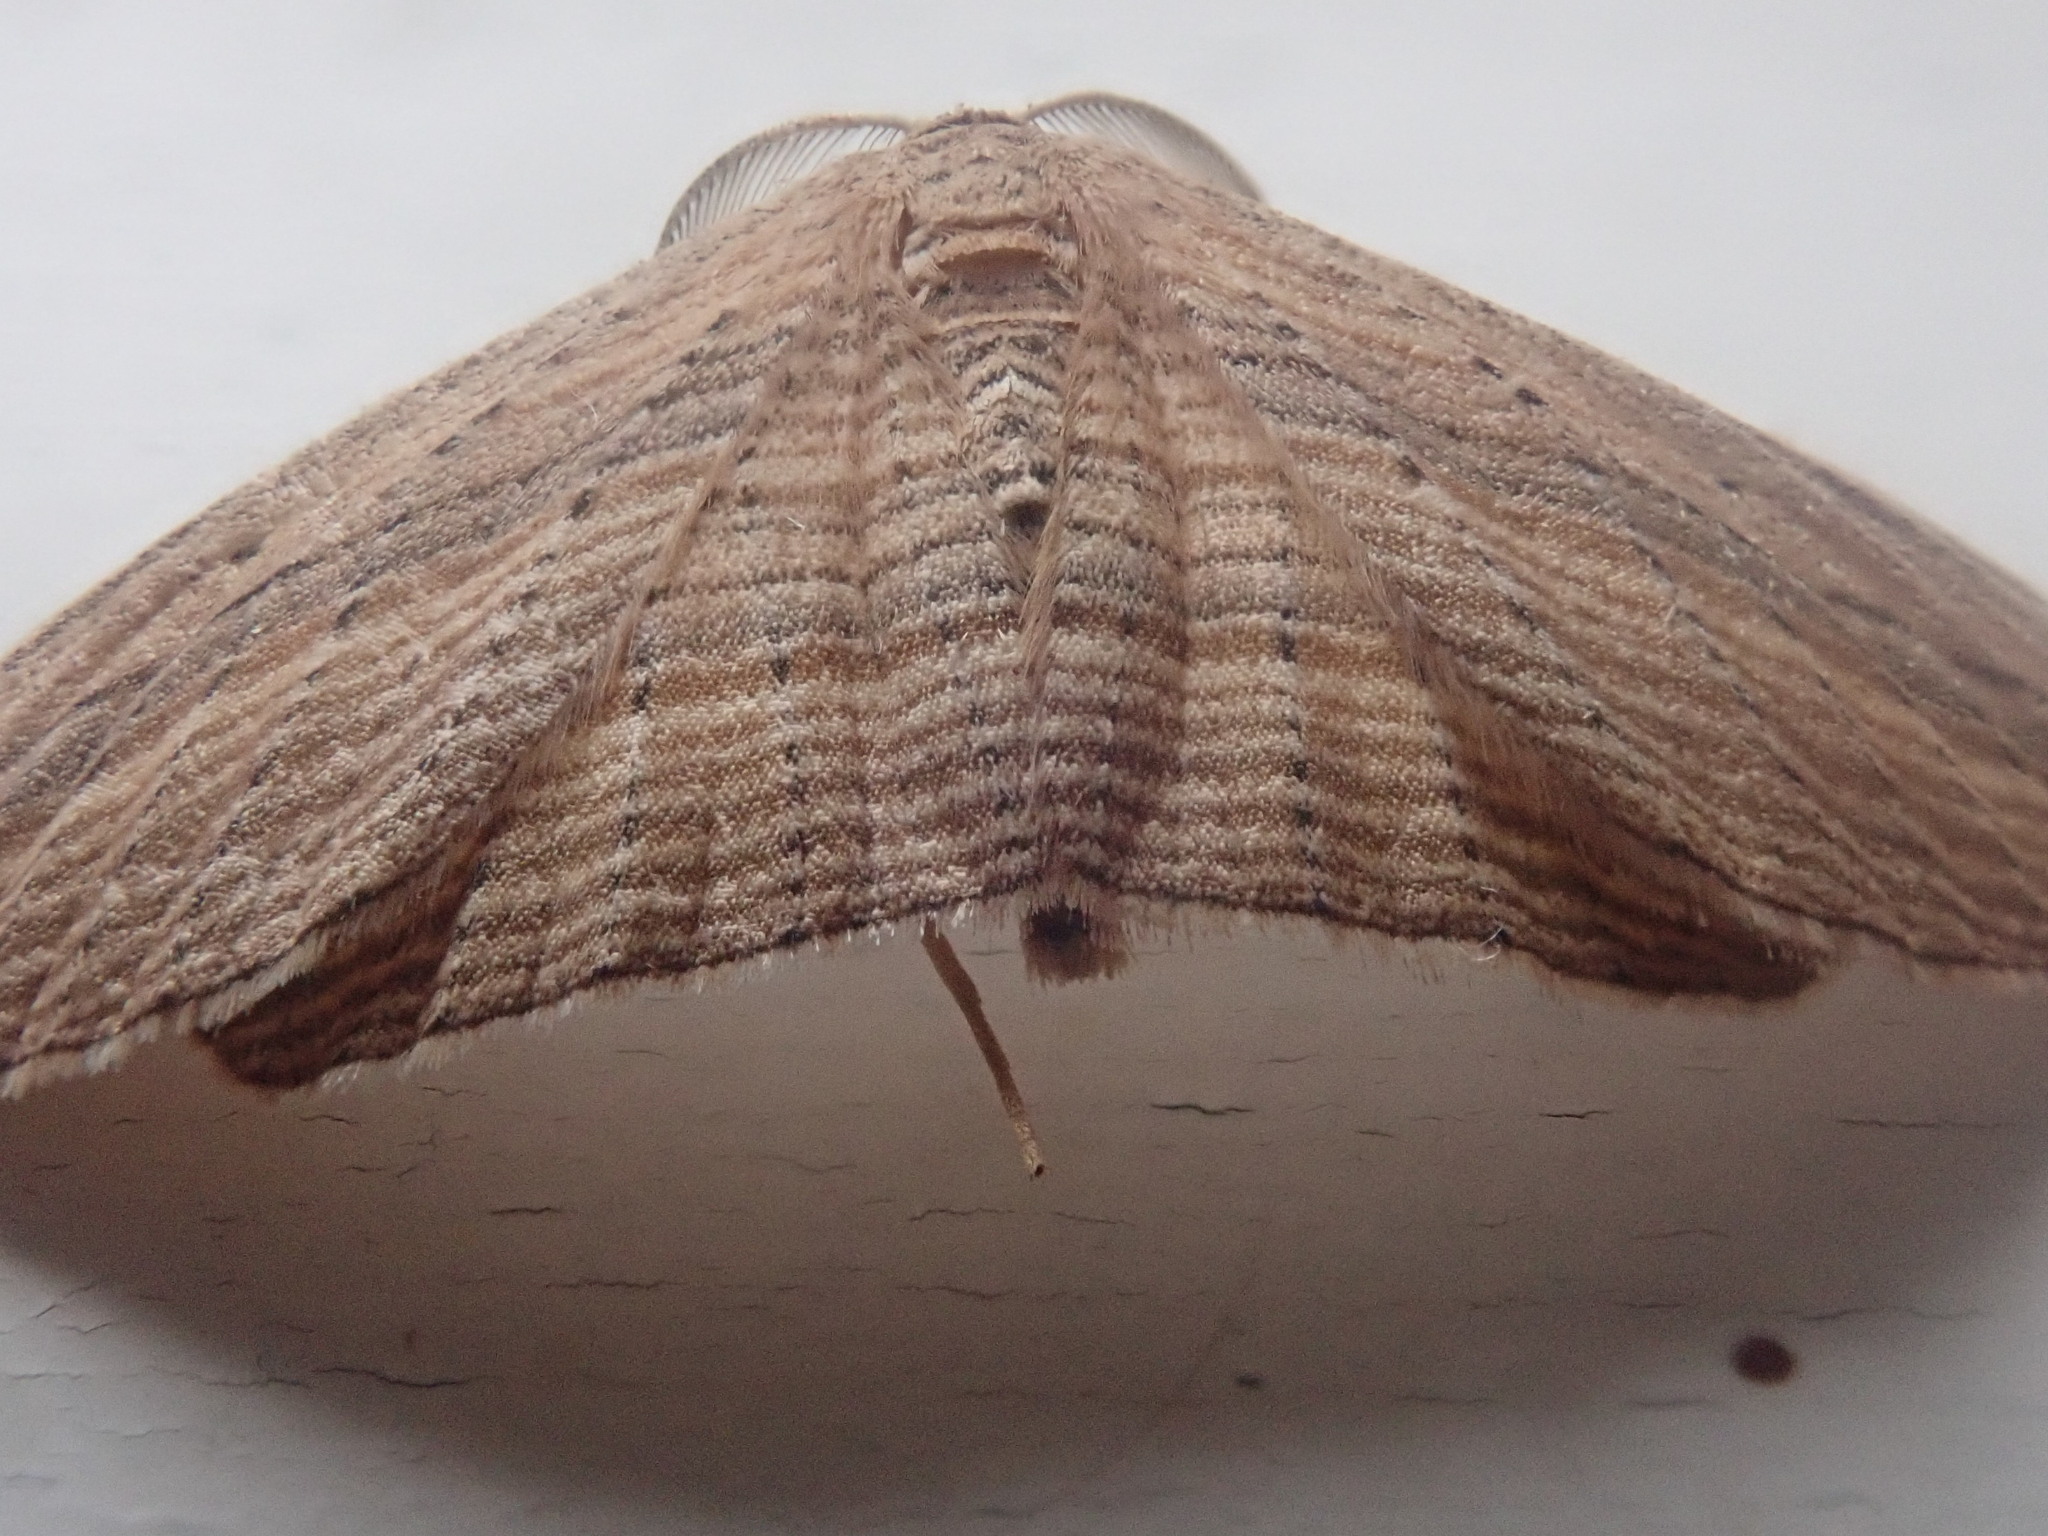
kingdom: Animalia
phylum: Arthropoda
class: Insecta
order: Lepidoptera
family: Geometridae
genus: Epiphryne
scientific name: Epiphryne verriculata
